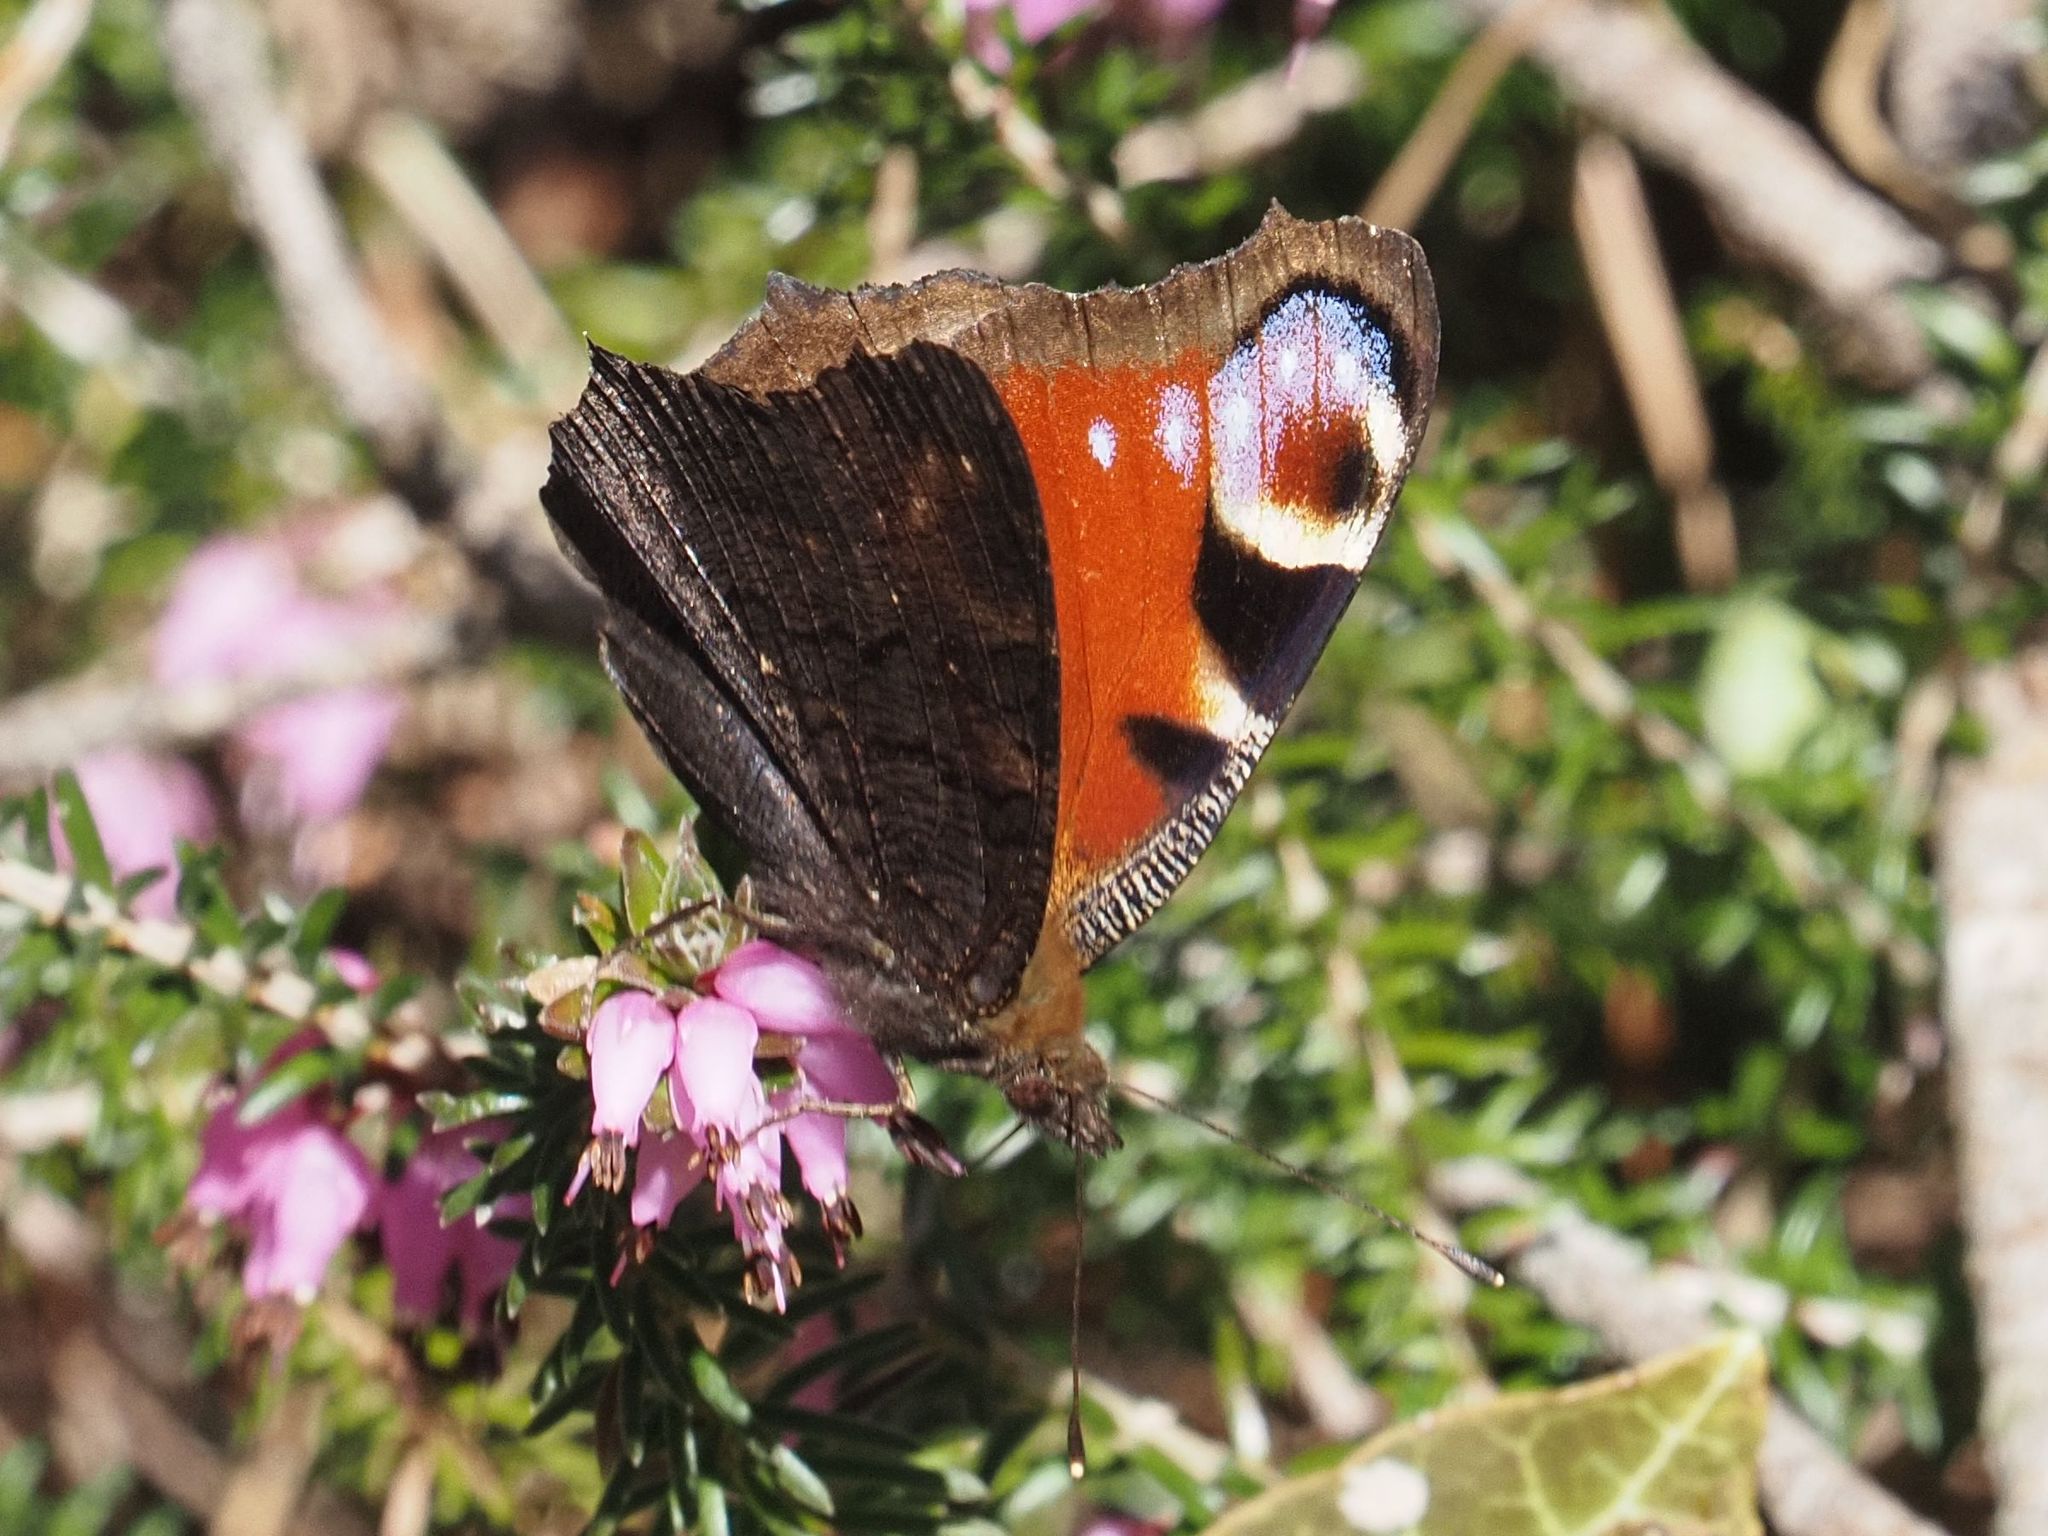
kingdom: Animalia
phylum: Arthropoda
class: Insecta
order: Lepidoptera
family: Nymphalidae
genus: Aglais
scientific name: Aglais io
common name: Peacock
